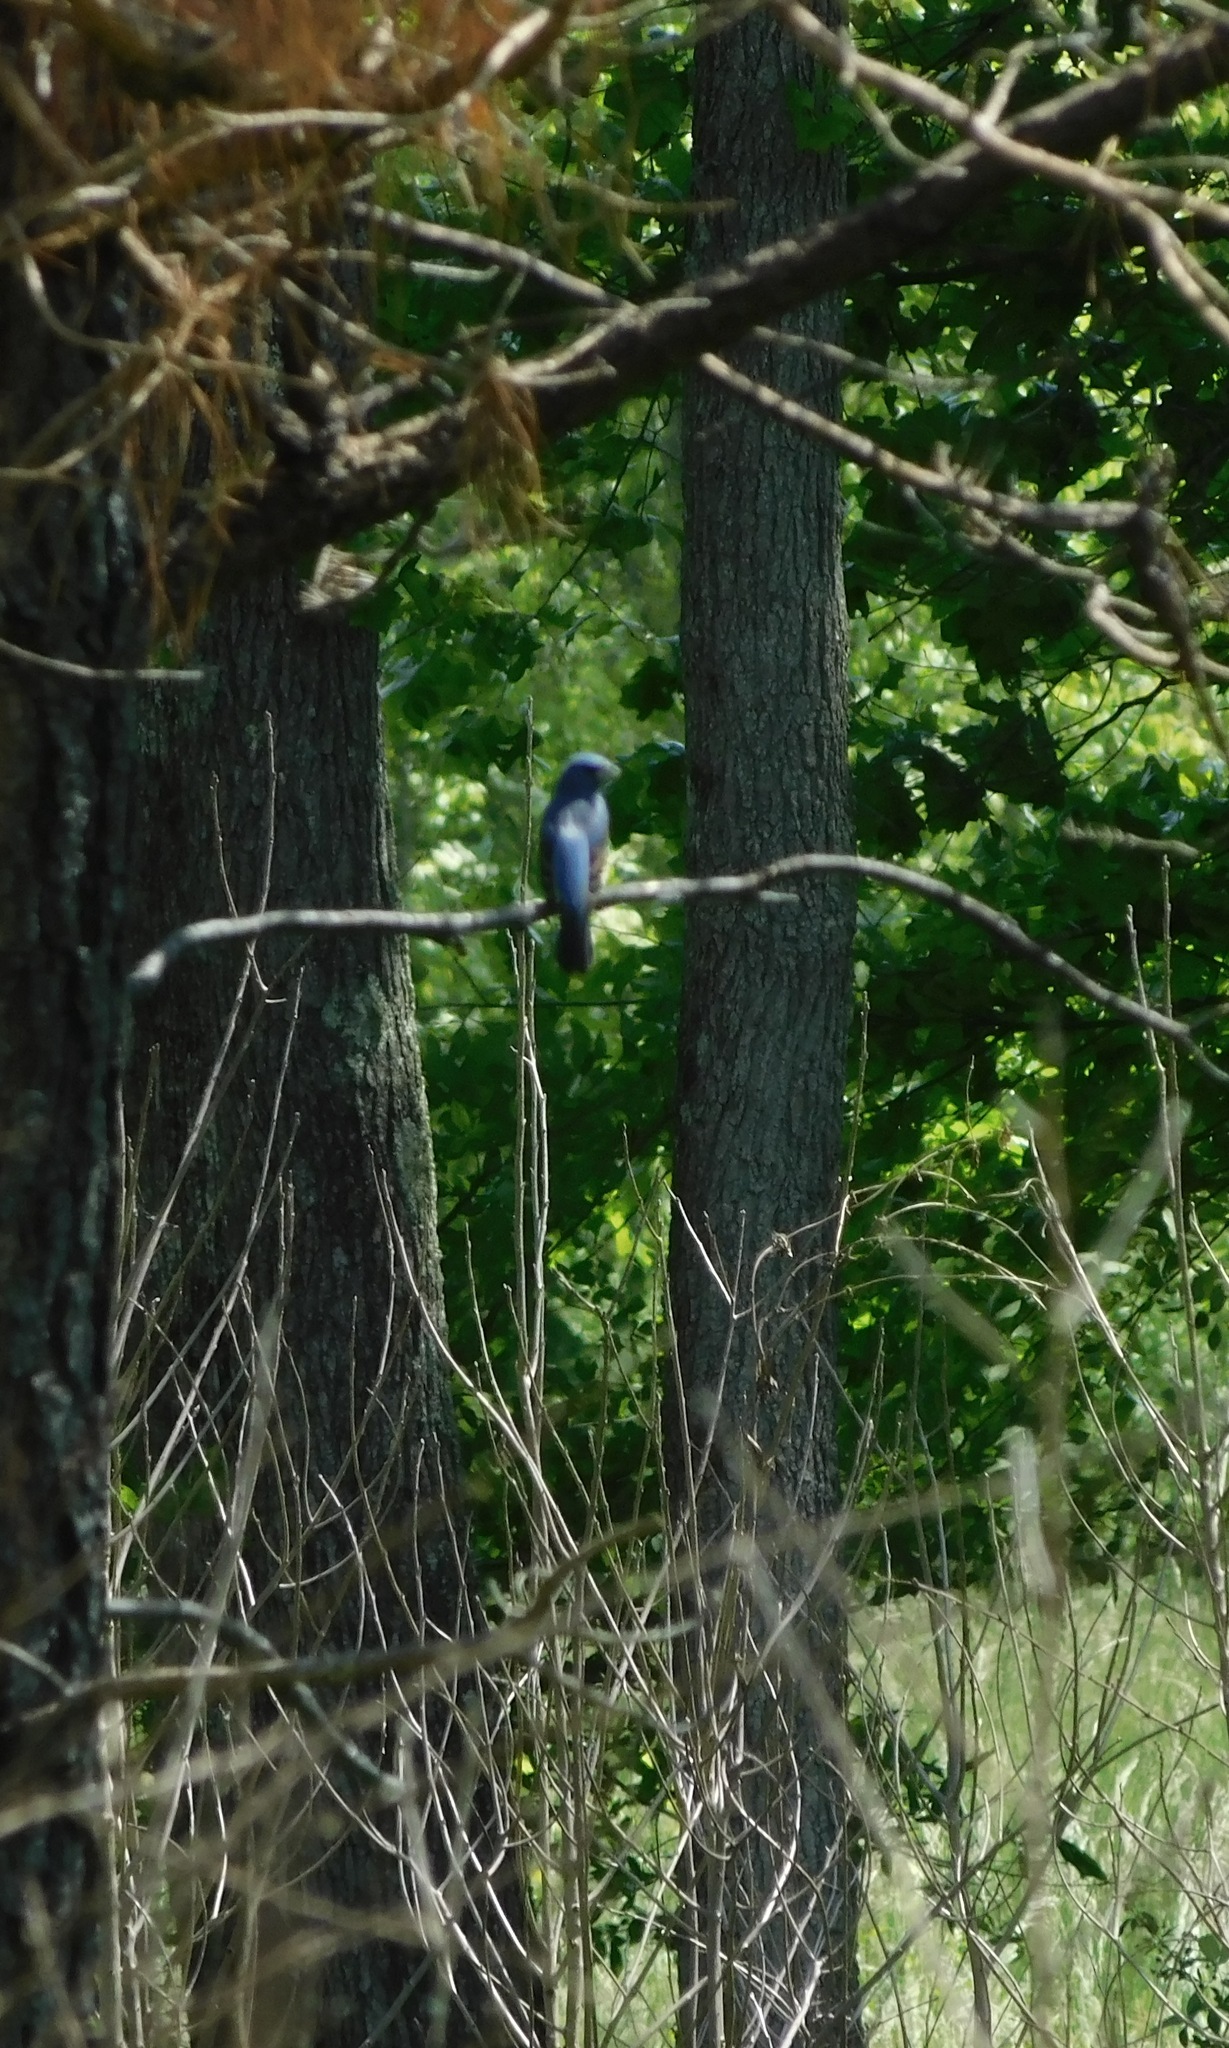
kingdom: Animalia
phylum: Chordata
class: Aves
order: Passeriformes
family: Cardinalidae
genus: Passerina
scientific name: Passerina caerulea
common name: Blue grosbeak
